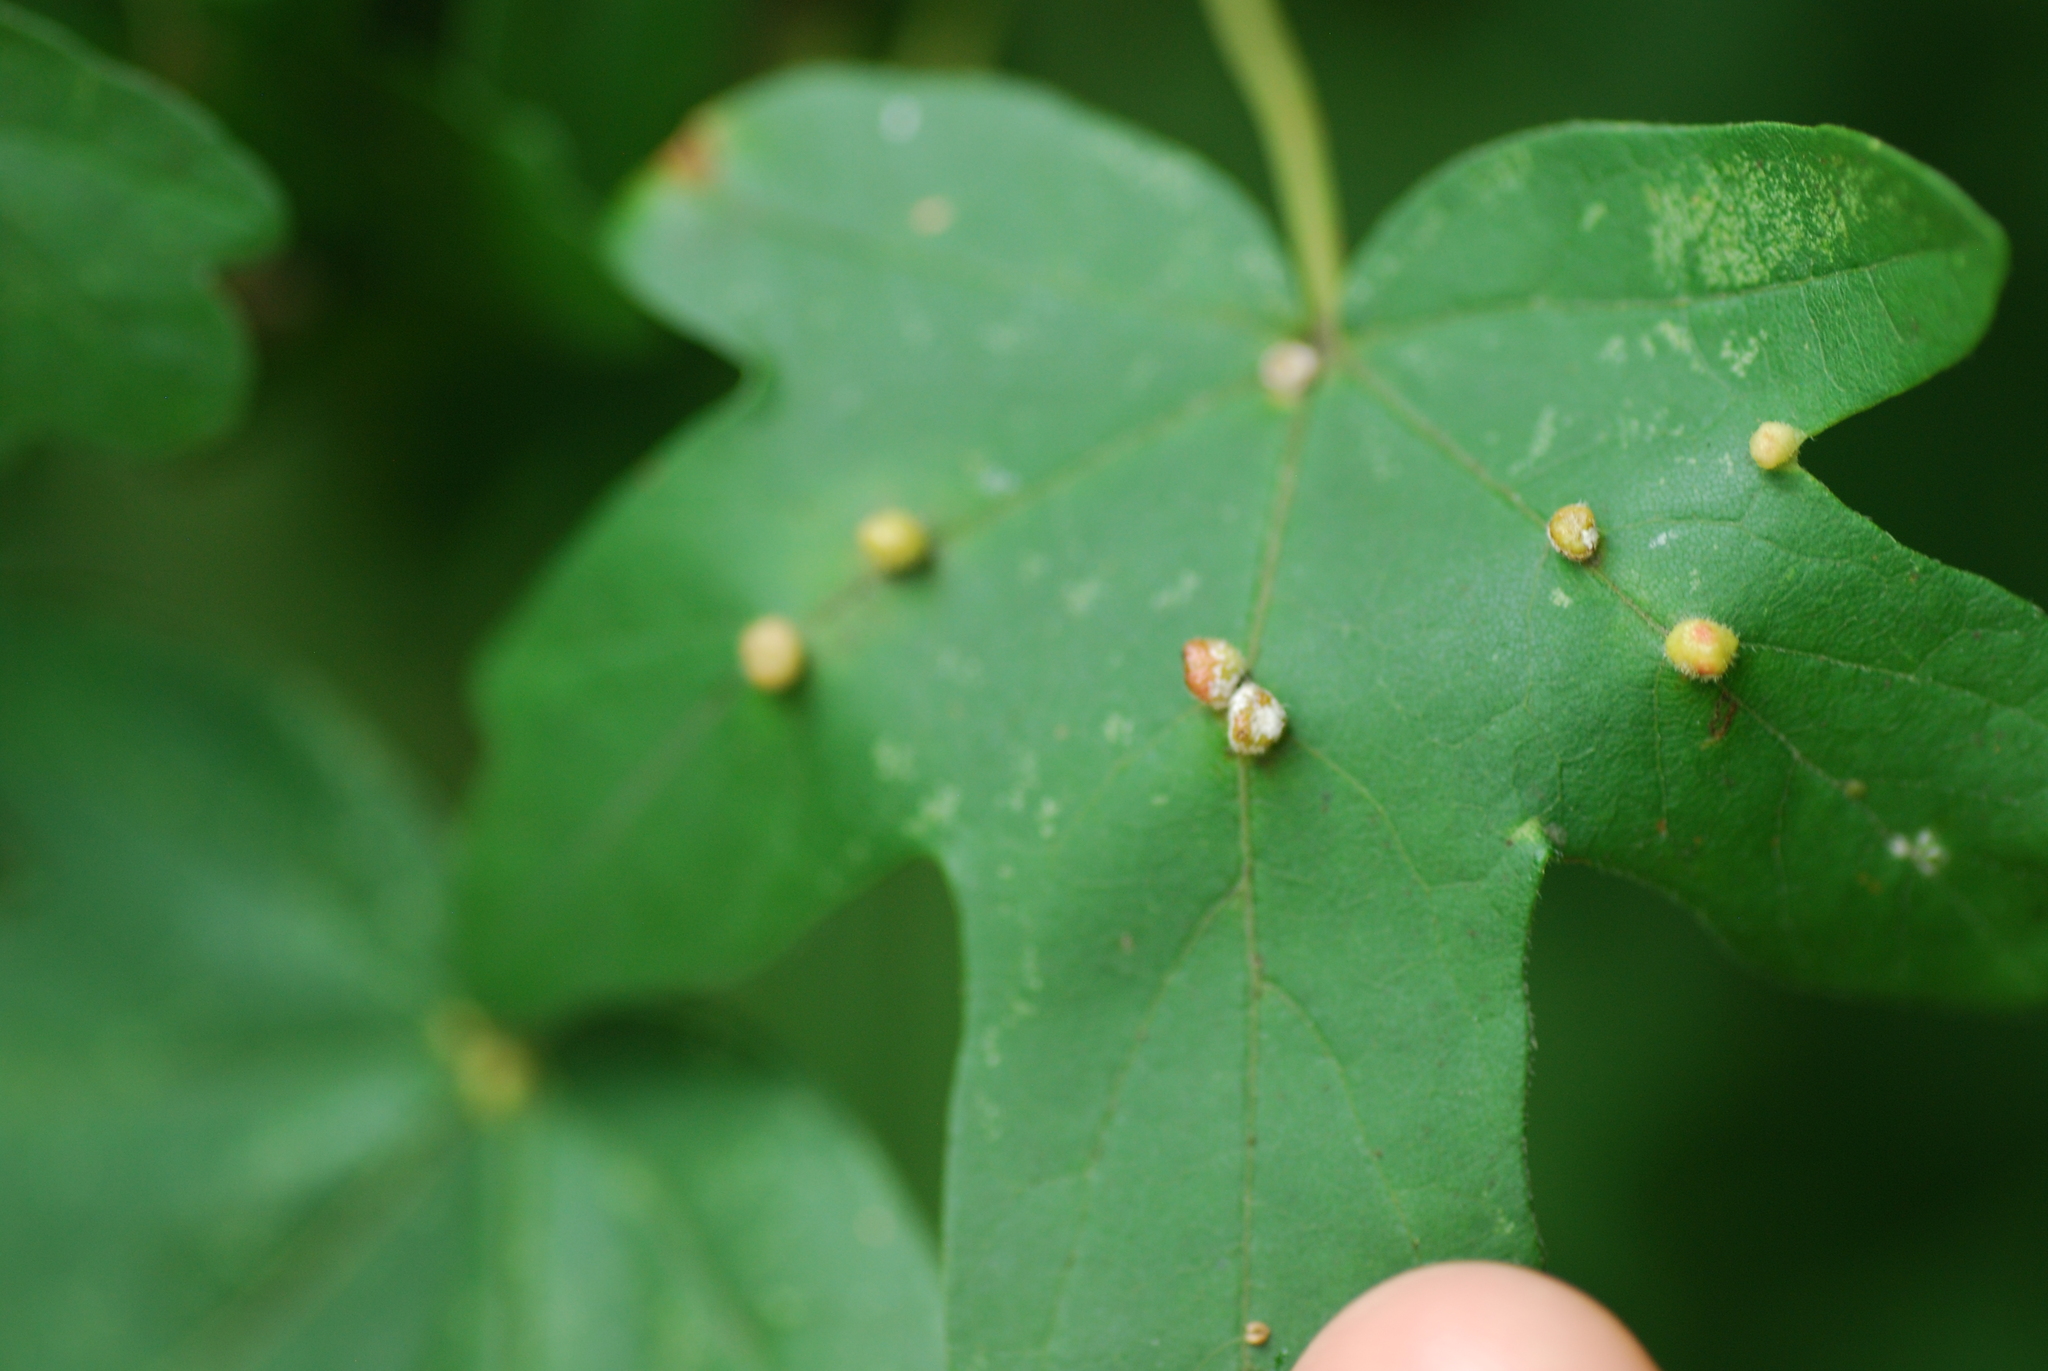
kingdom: Animalia
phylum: Arthropoda
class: Arachnida
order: Trombidiformes
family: Eriophyidae
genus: Aceria
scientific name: Aceria macrochelus
